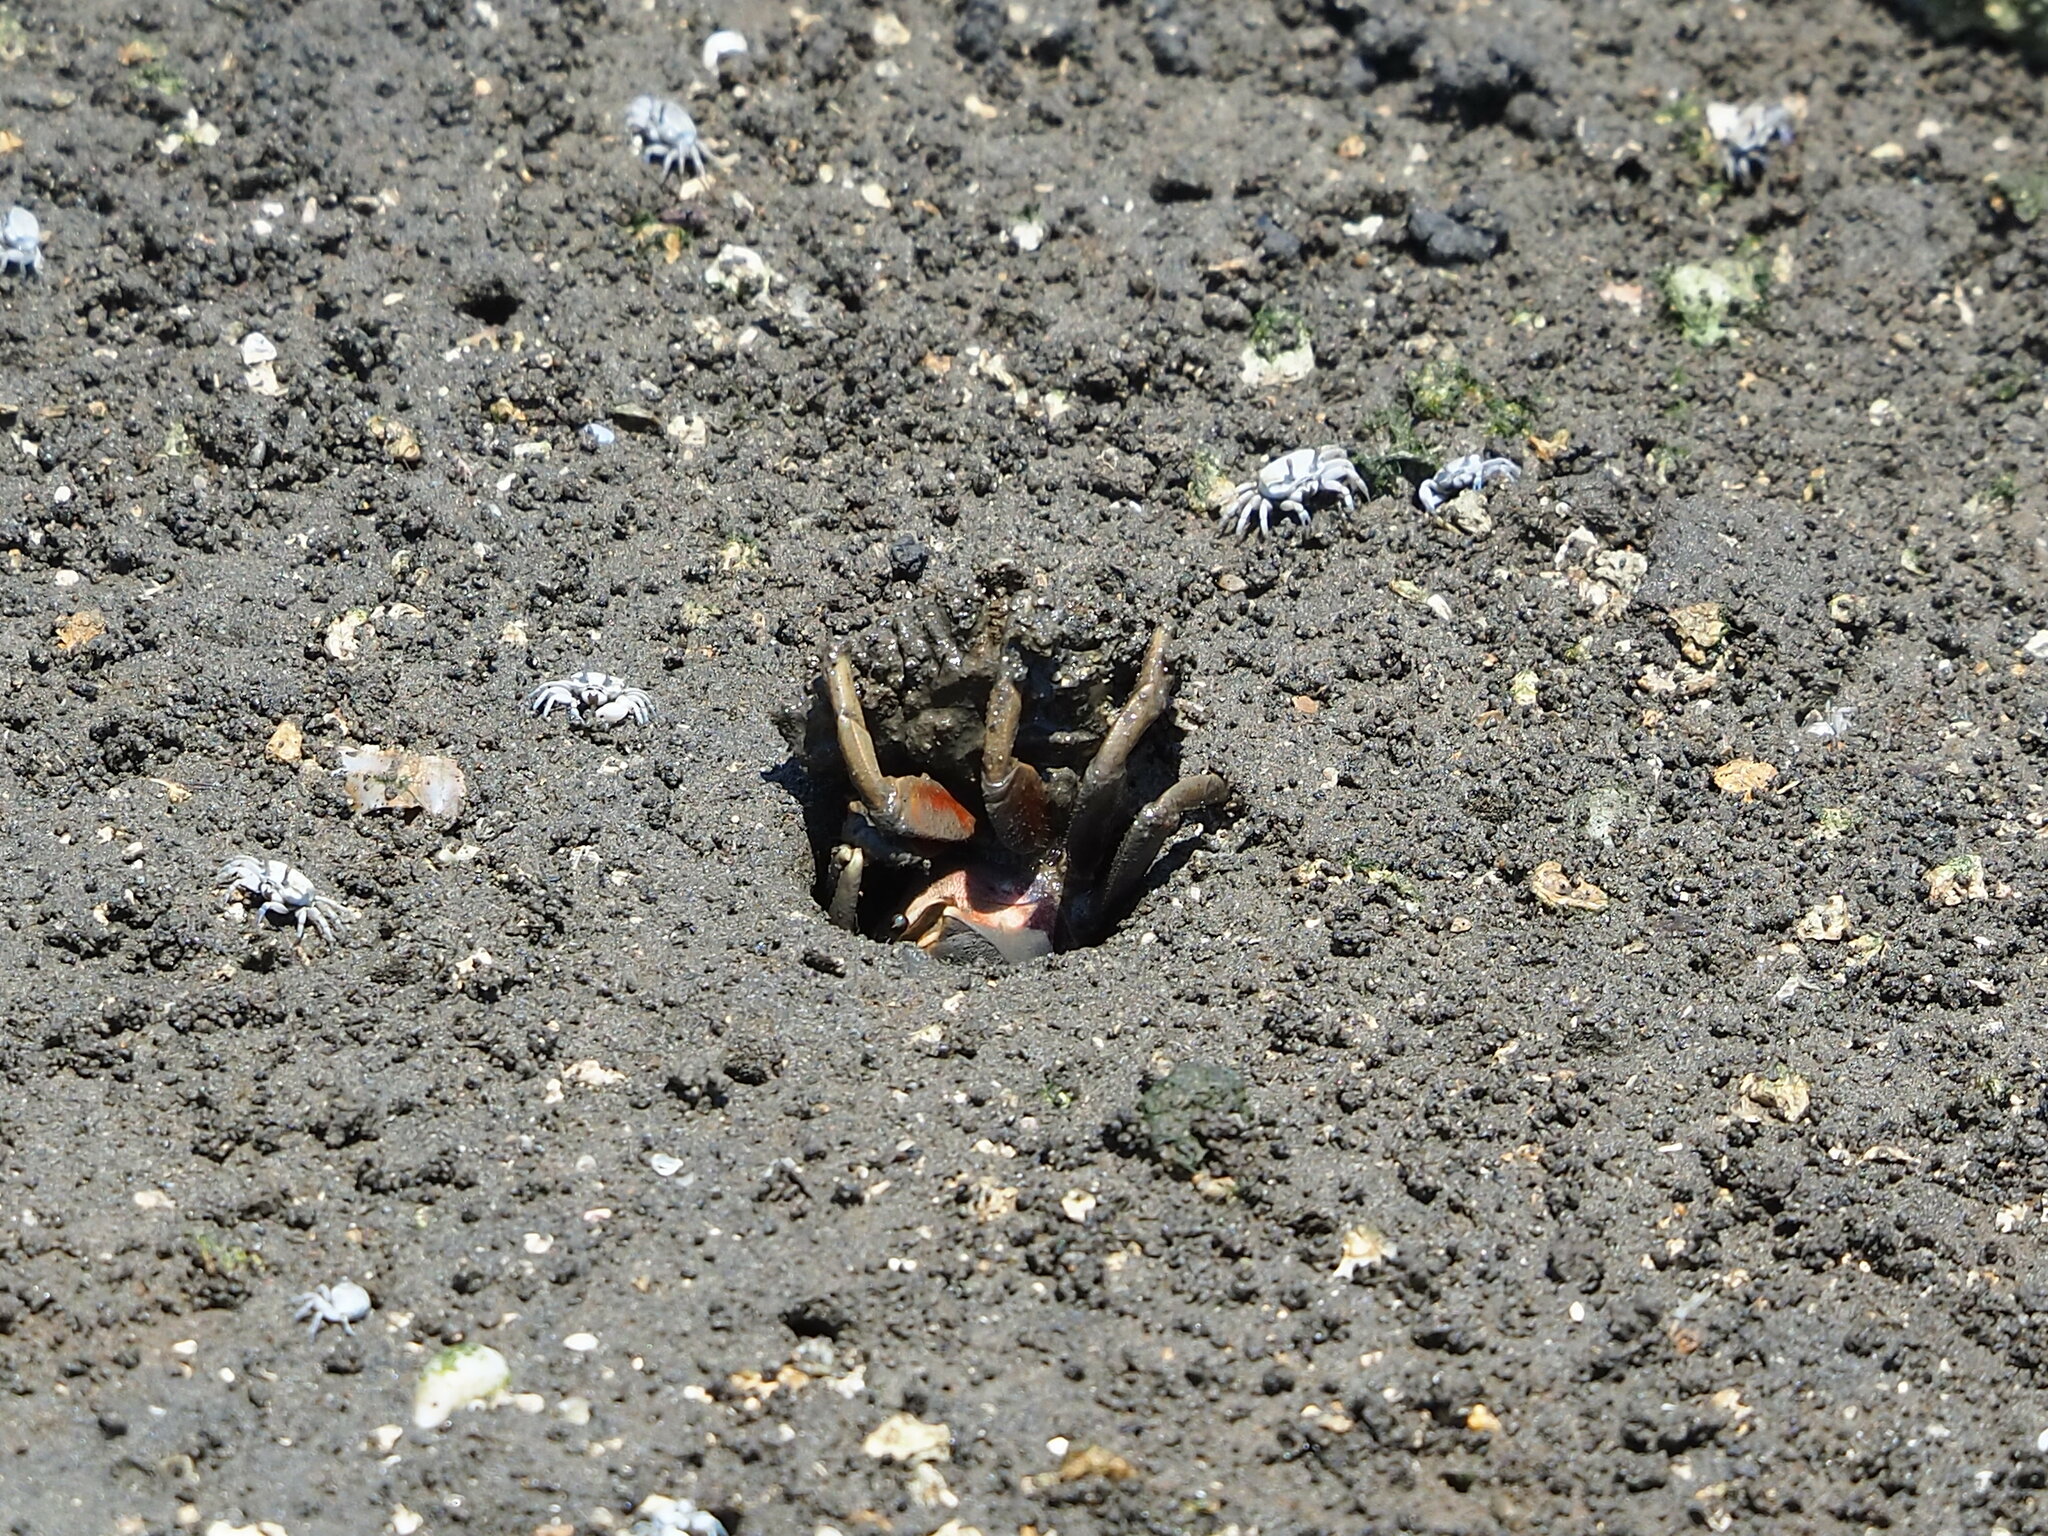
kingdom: Animalia
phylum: Arthropoda
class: Malacostraca
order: Decapoda
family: Ocypodidae
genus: Tubuca
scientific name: Tubuca arcuata
